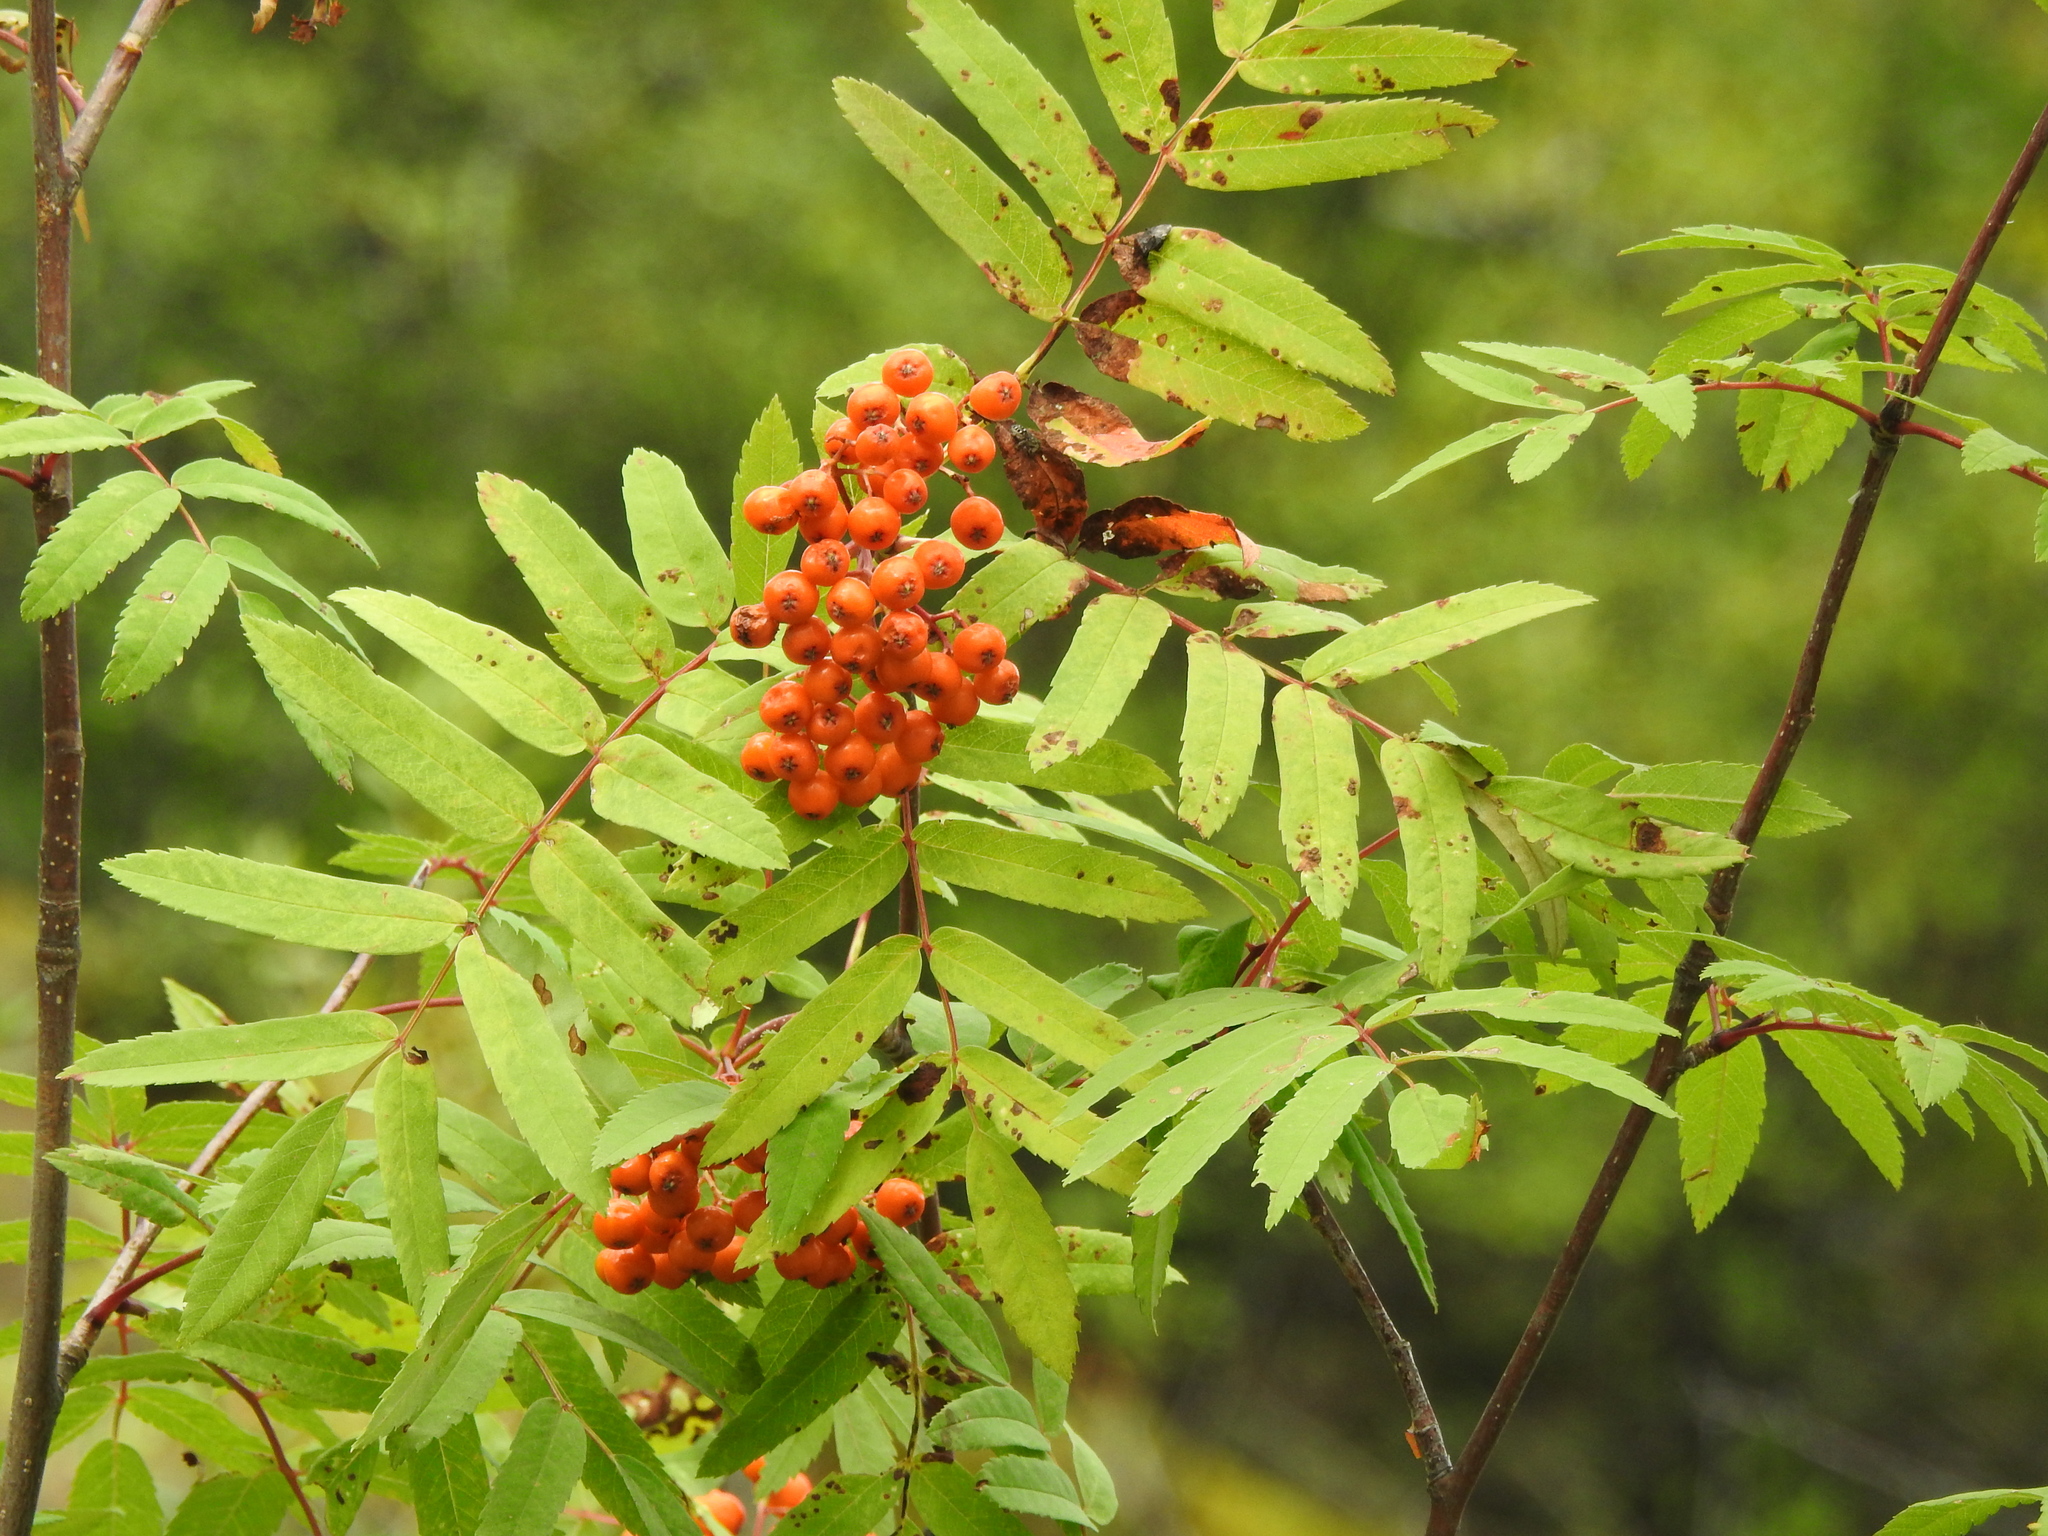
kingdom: Plantae
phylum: Tracheophyta
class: Magnoliopsida
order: Rosales
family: Rosaceae
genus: Sorbus
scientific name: Sorbus aucuparia
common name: Rowan
